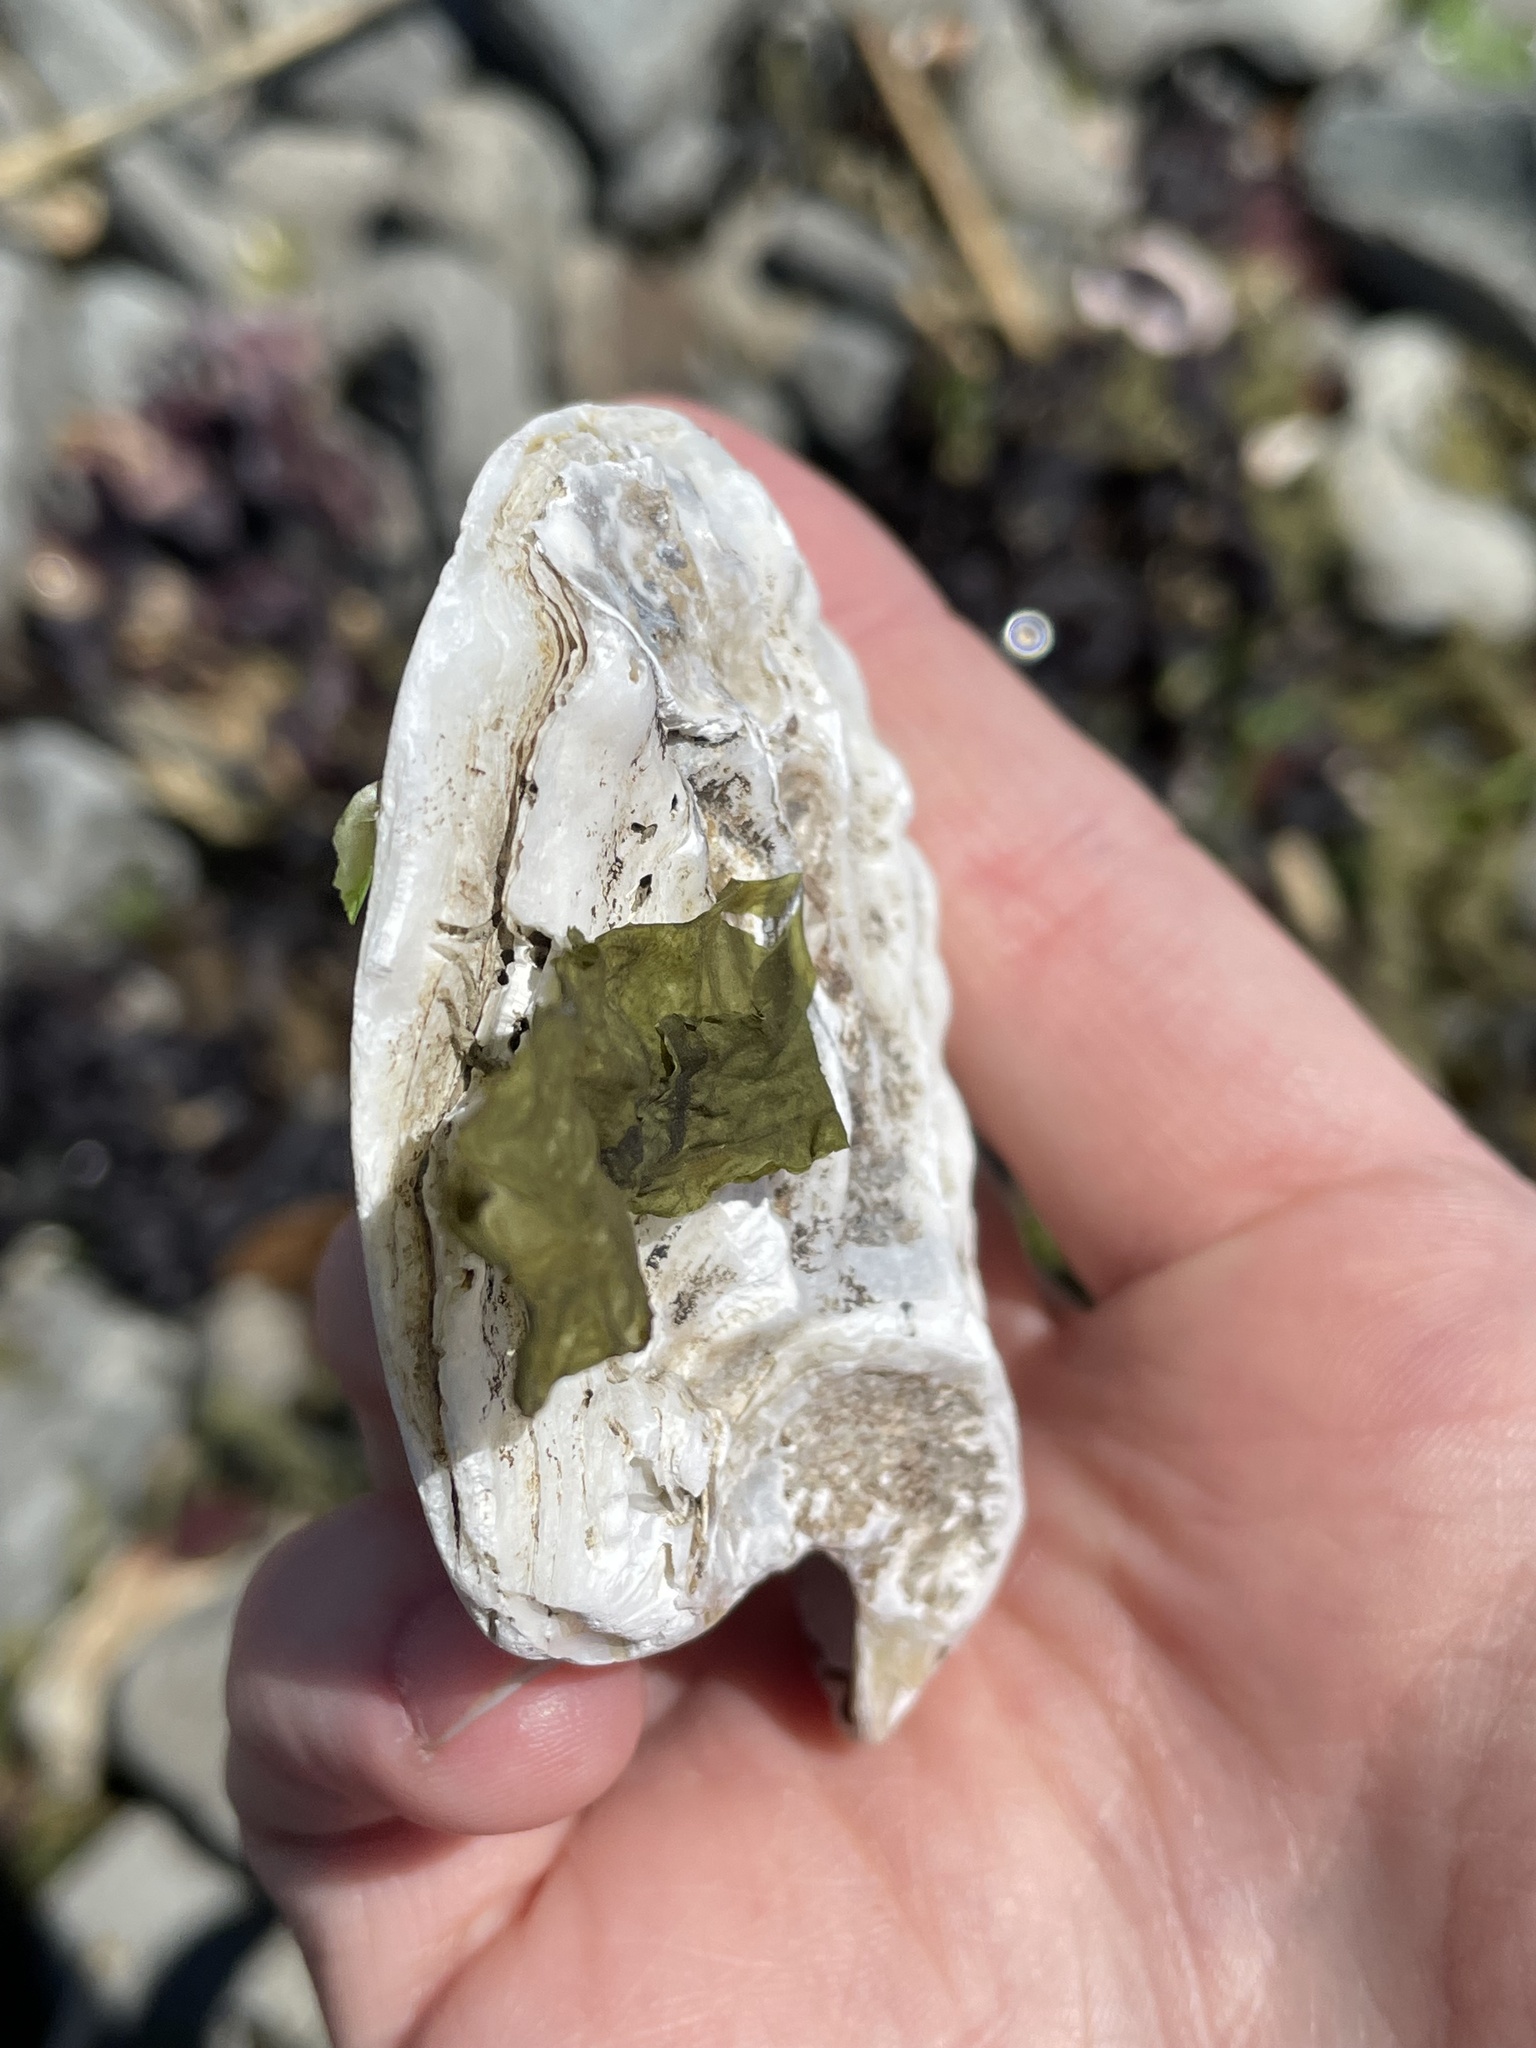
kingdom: Animalia
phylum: Mollusca
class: Bivalvia
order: Ostreida
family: Ostreidae
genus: Crassostrea
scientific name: Crassostrea virginica
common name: American oyster
